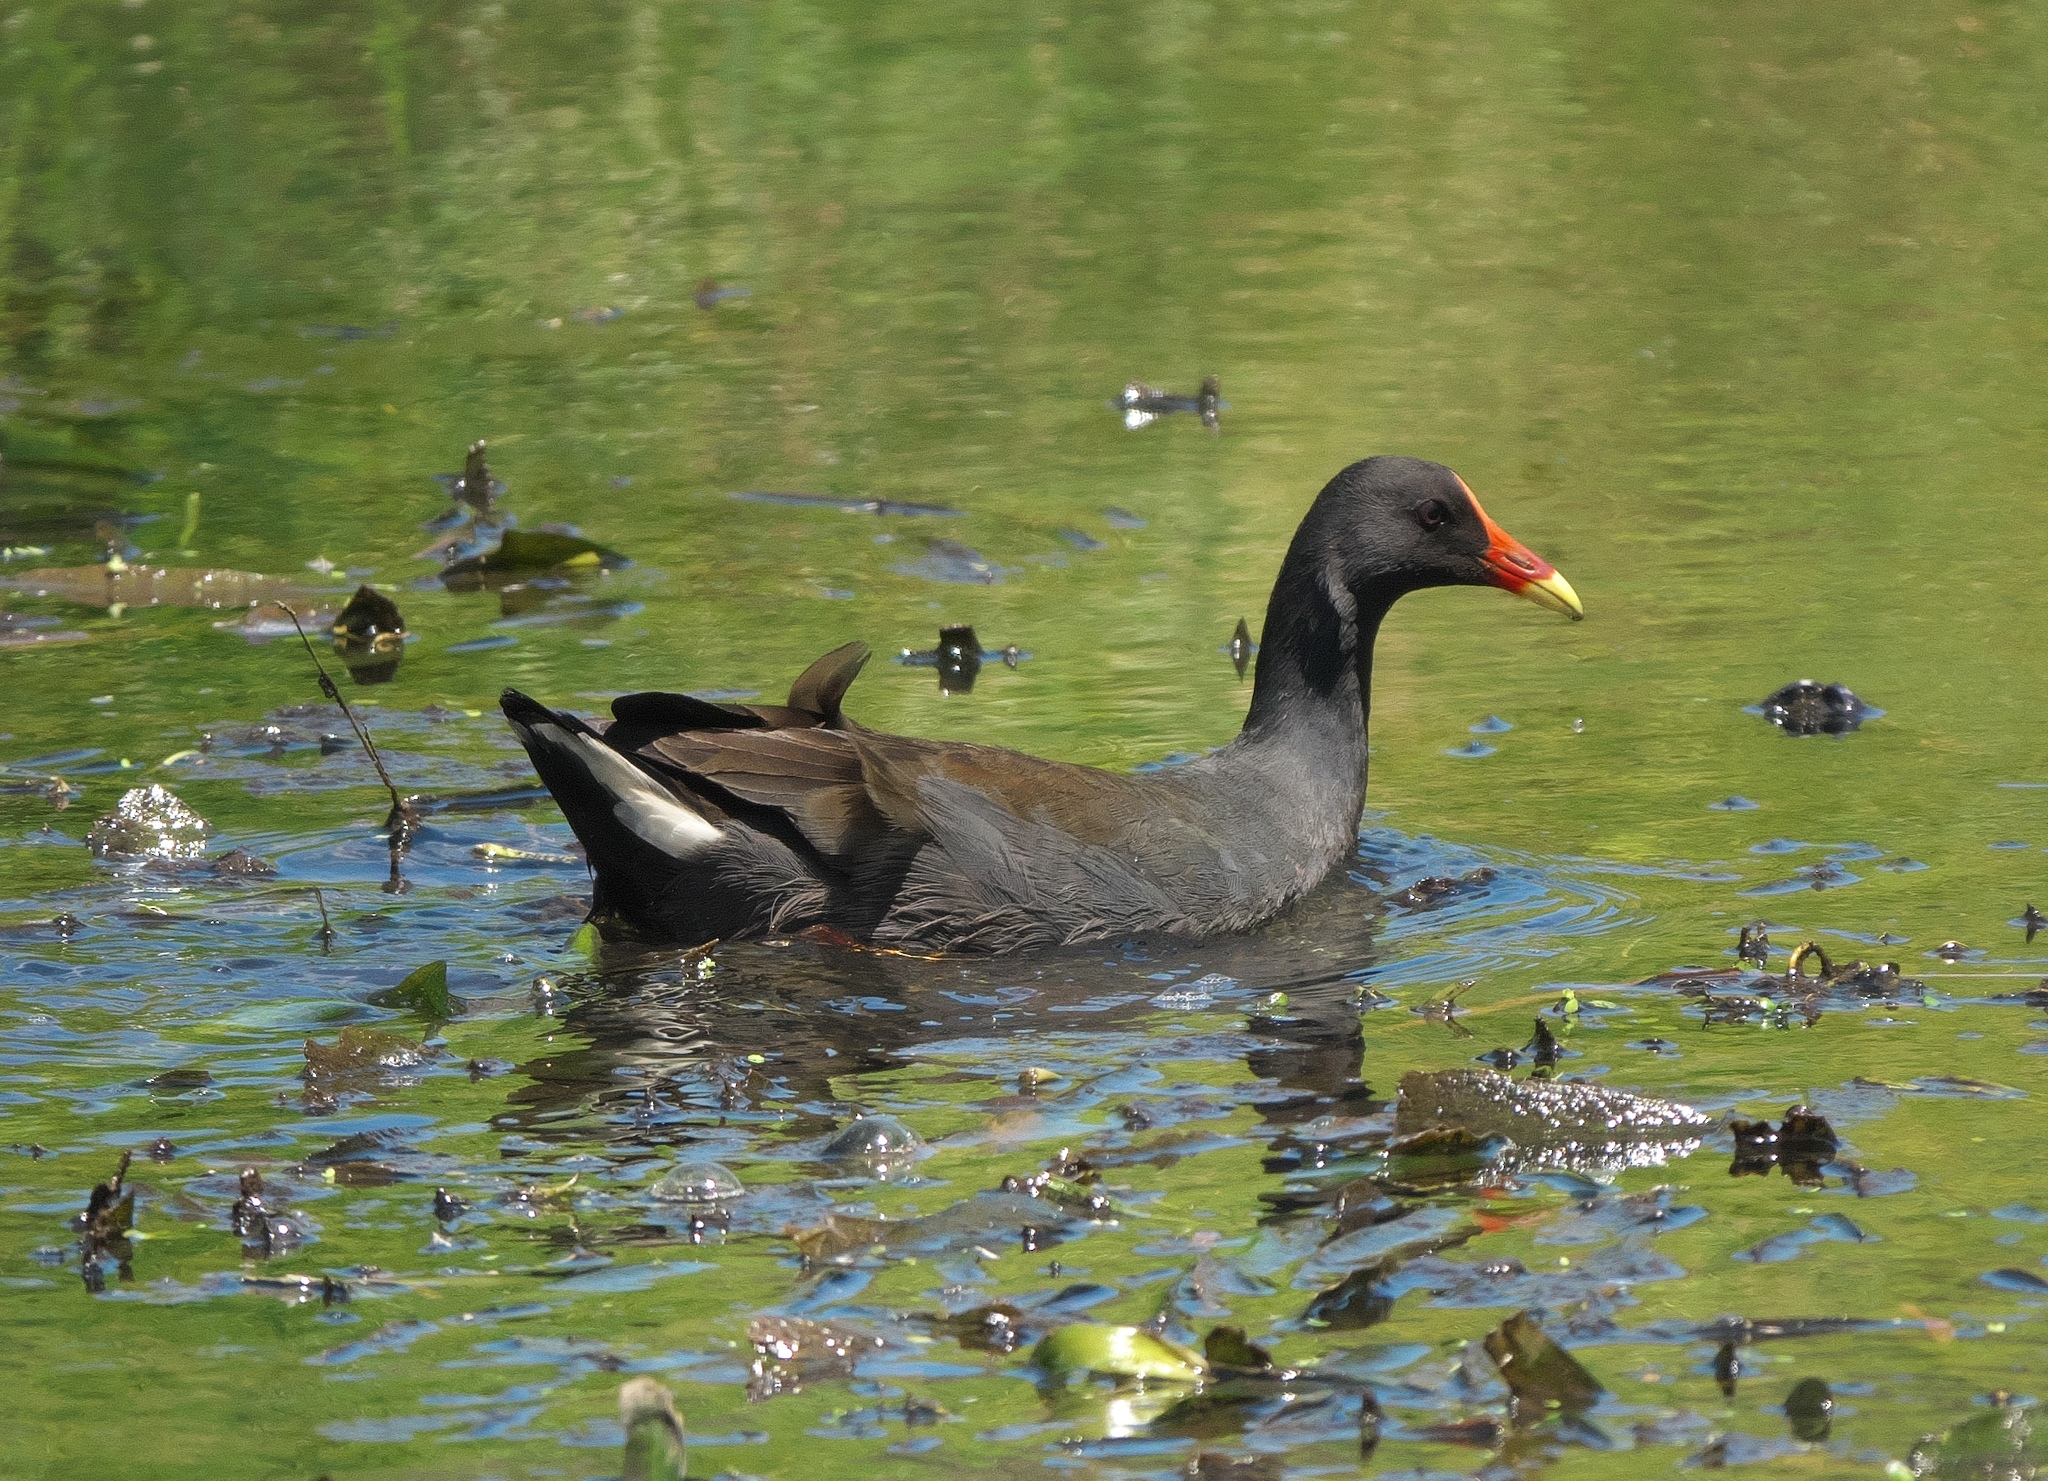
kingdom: Animalia
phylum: Chordata
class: Aves
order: Gruiformes
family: Rallidae
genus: Gallinula
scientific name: Gallinula tenebrosa
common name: Dusky moorhen
